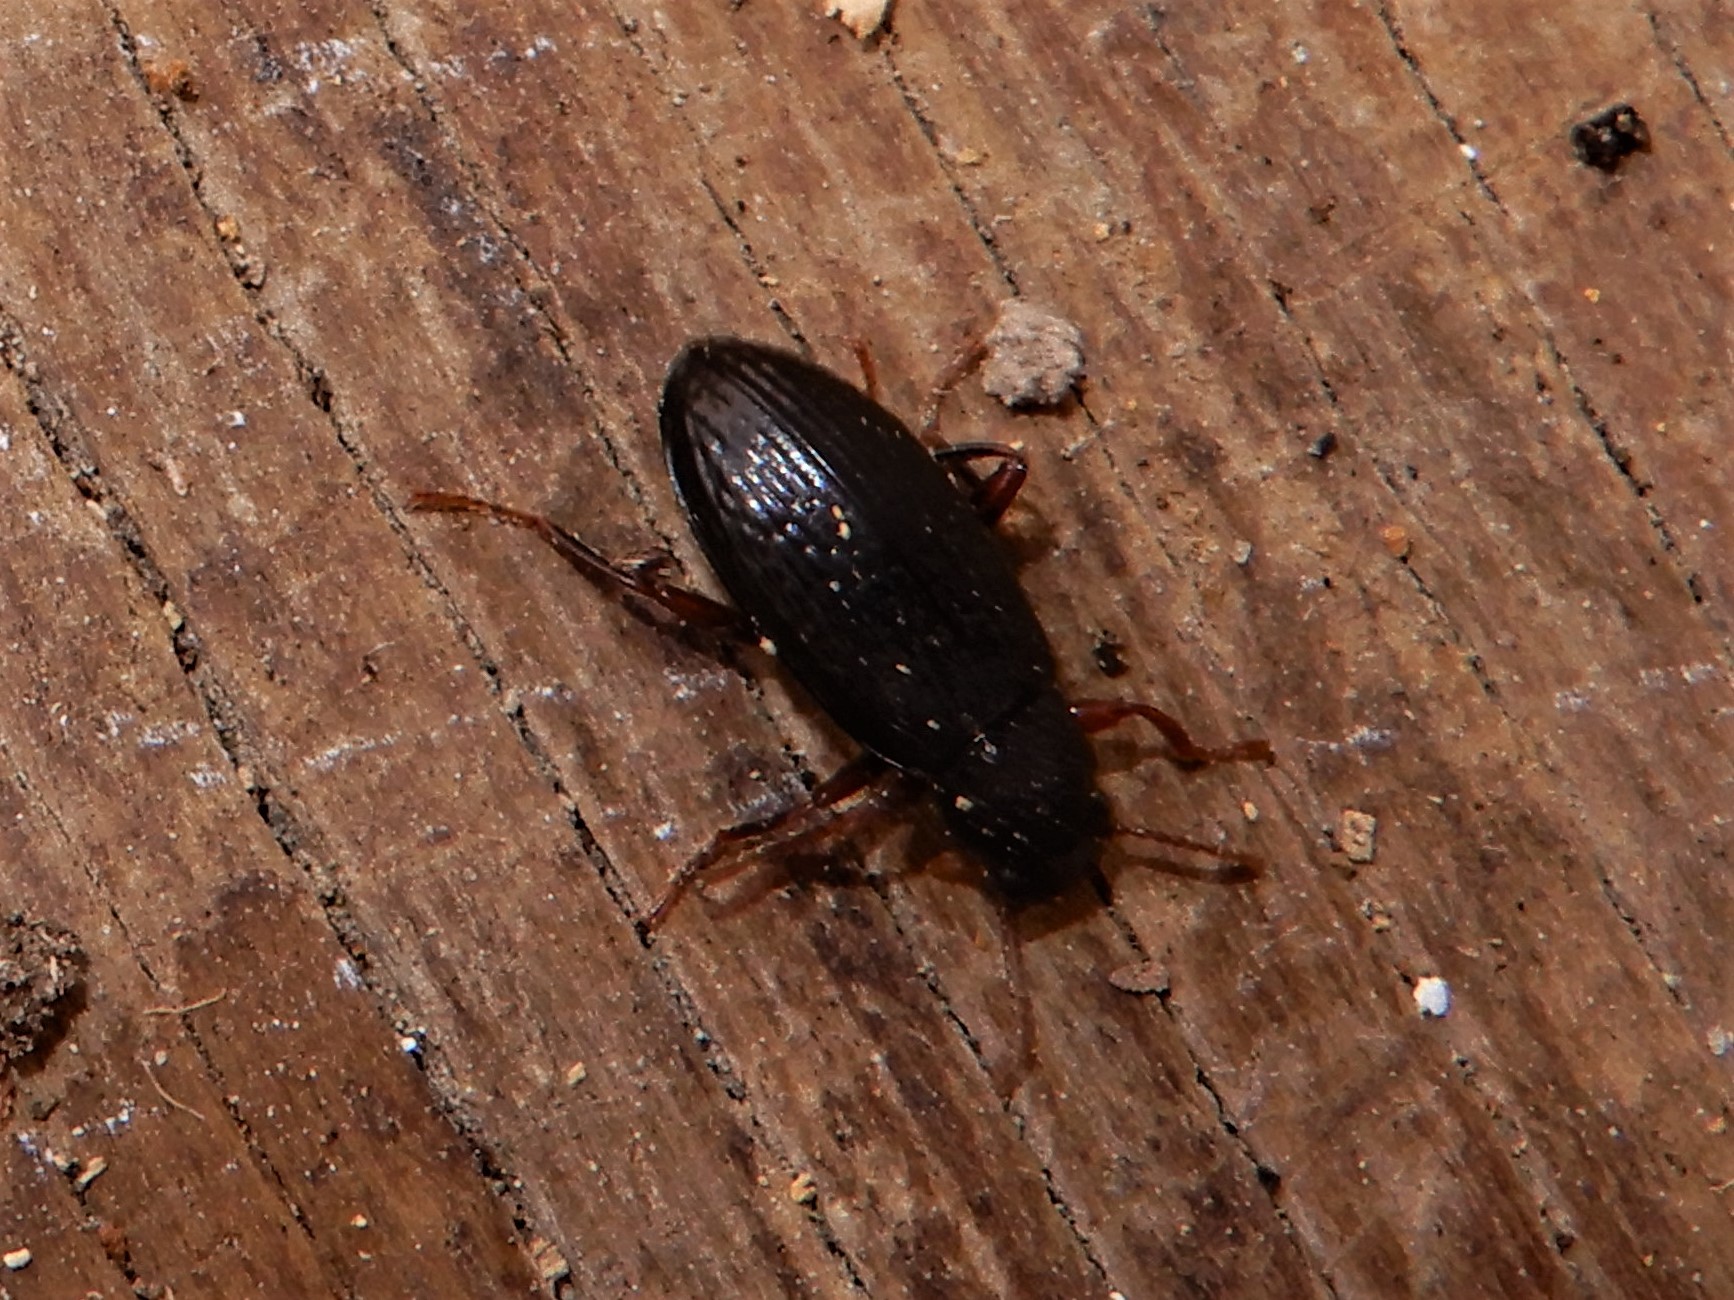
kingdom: Animalia
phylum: Arthropoda
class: Insecta
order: Coleoptera
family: Tenebrionidae
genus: Artystona
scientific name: Artystona
